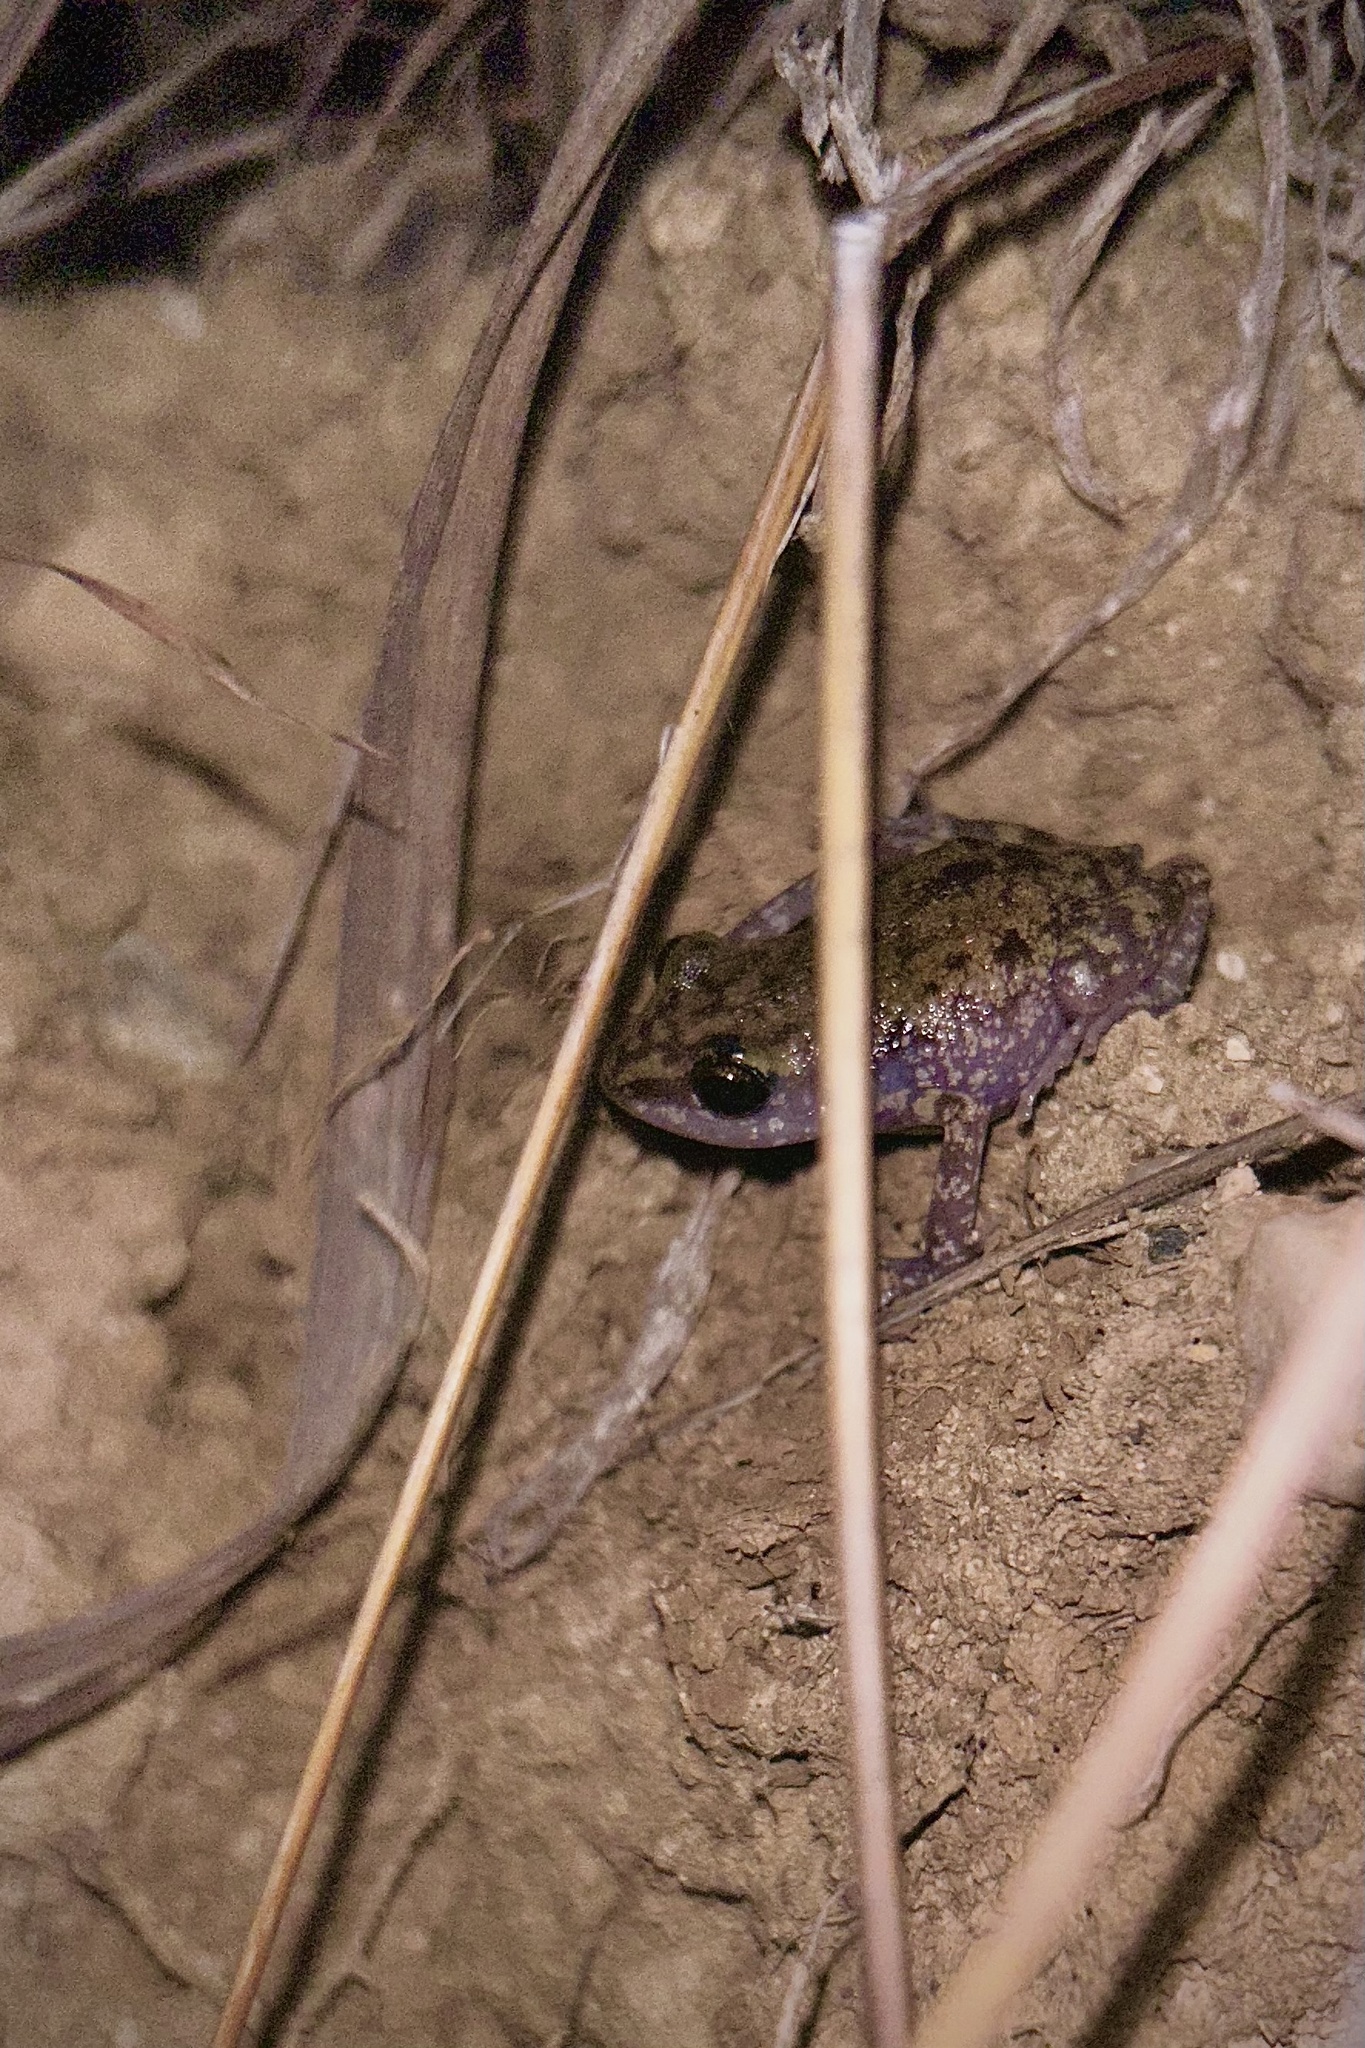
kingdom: Animalia
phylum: Chordata
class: Amphibia
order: Anura
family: Eleutherodactylidae
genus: Eleutherodactylus
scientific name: Eleutherodactylus pipilans
